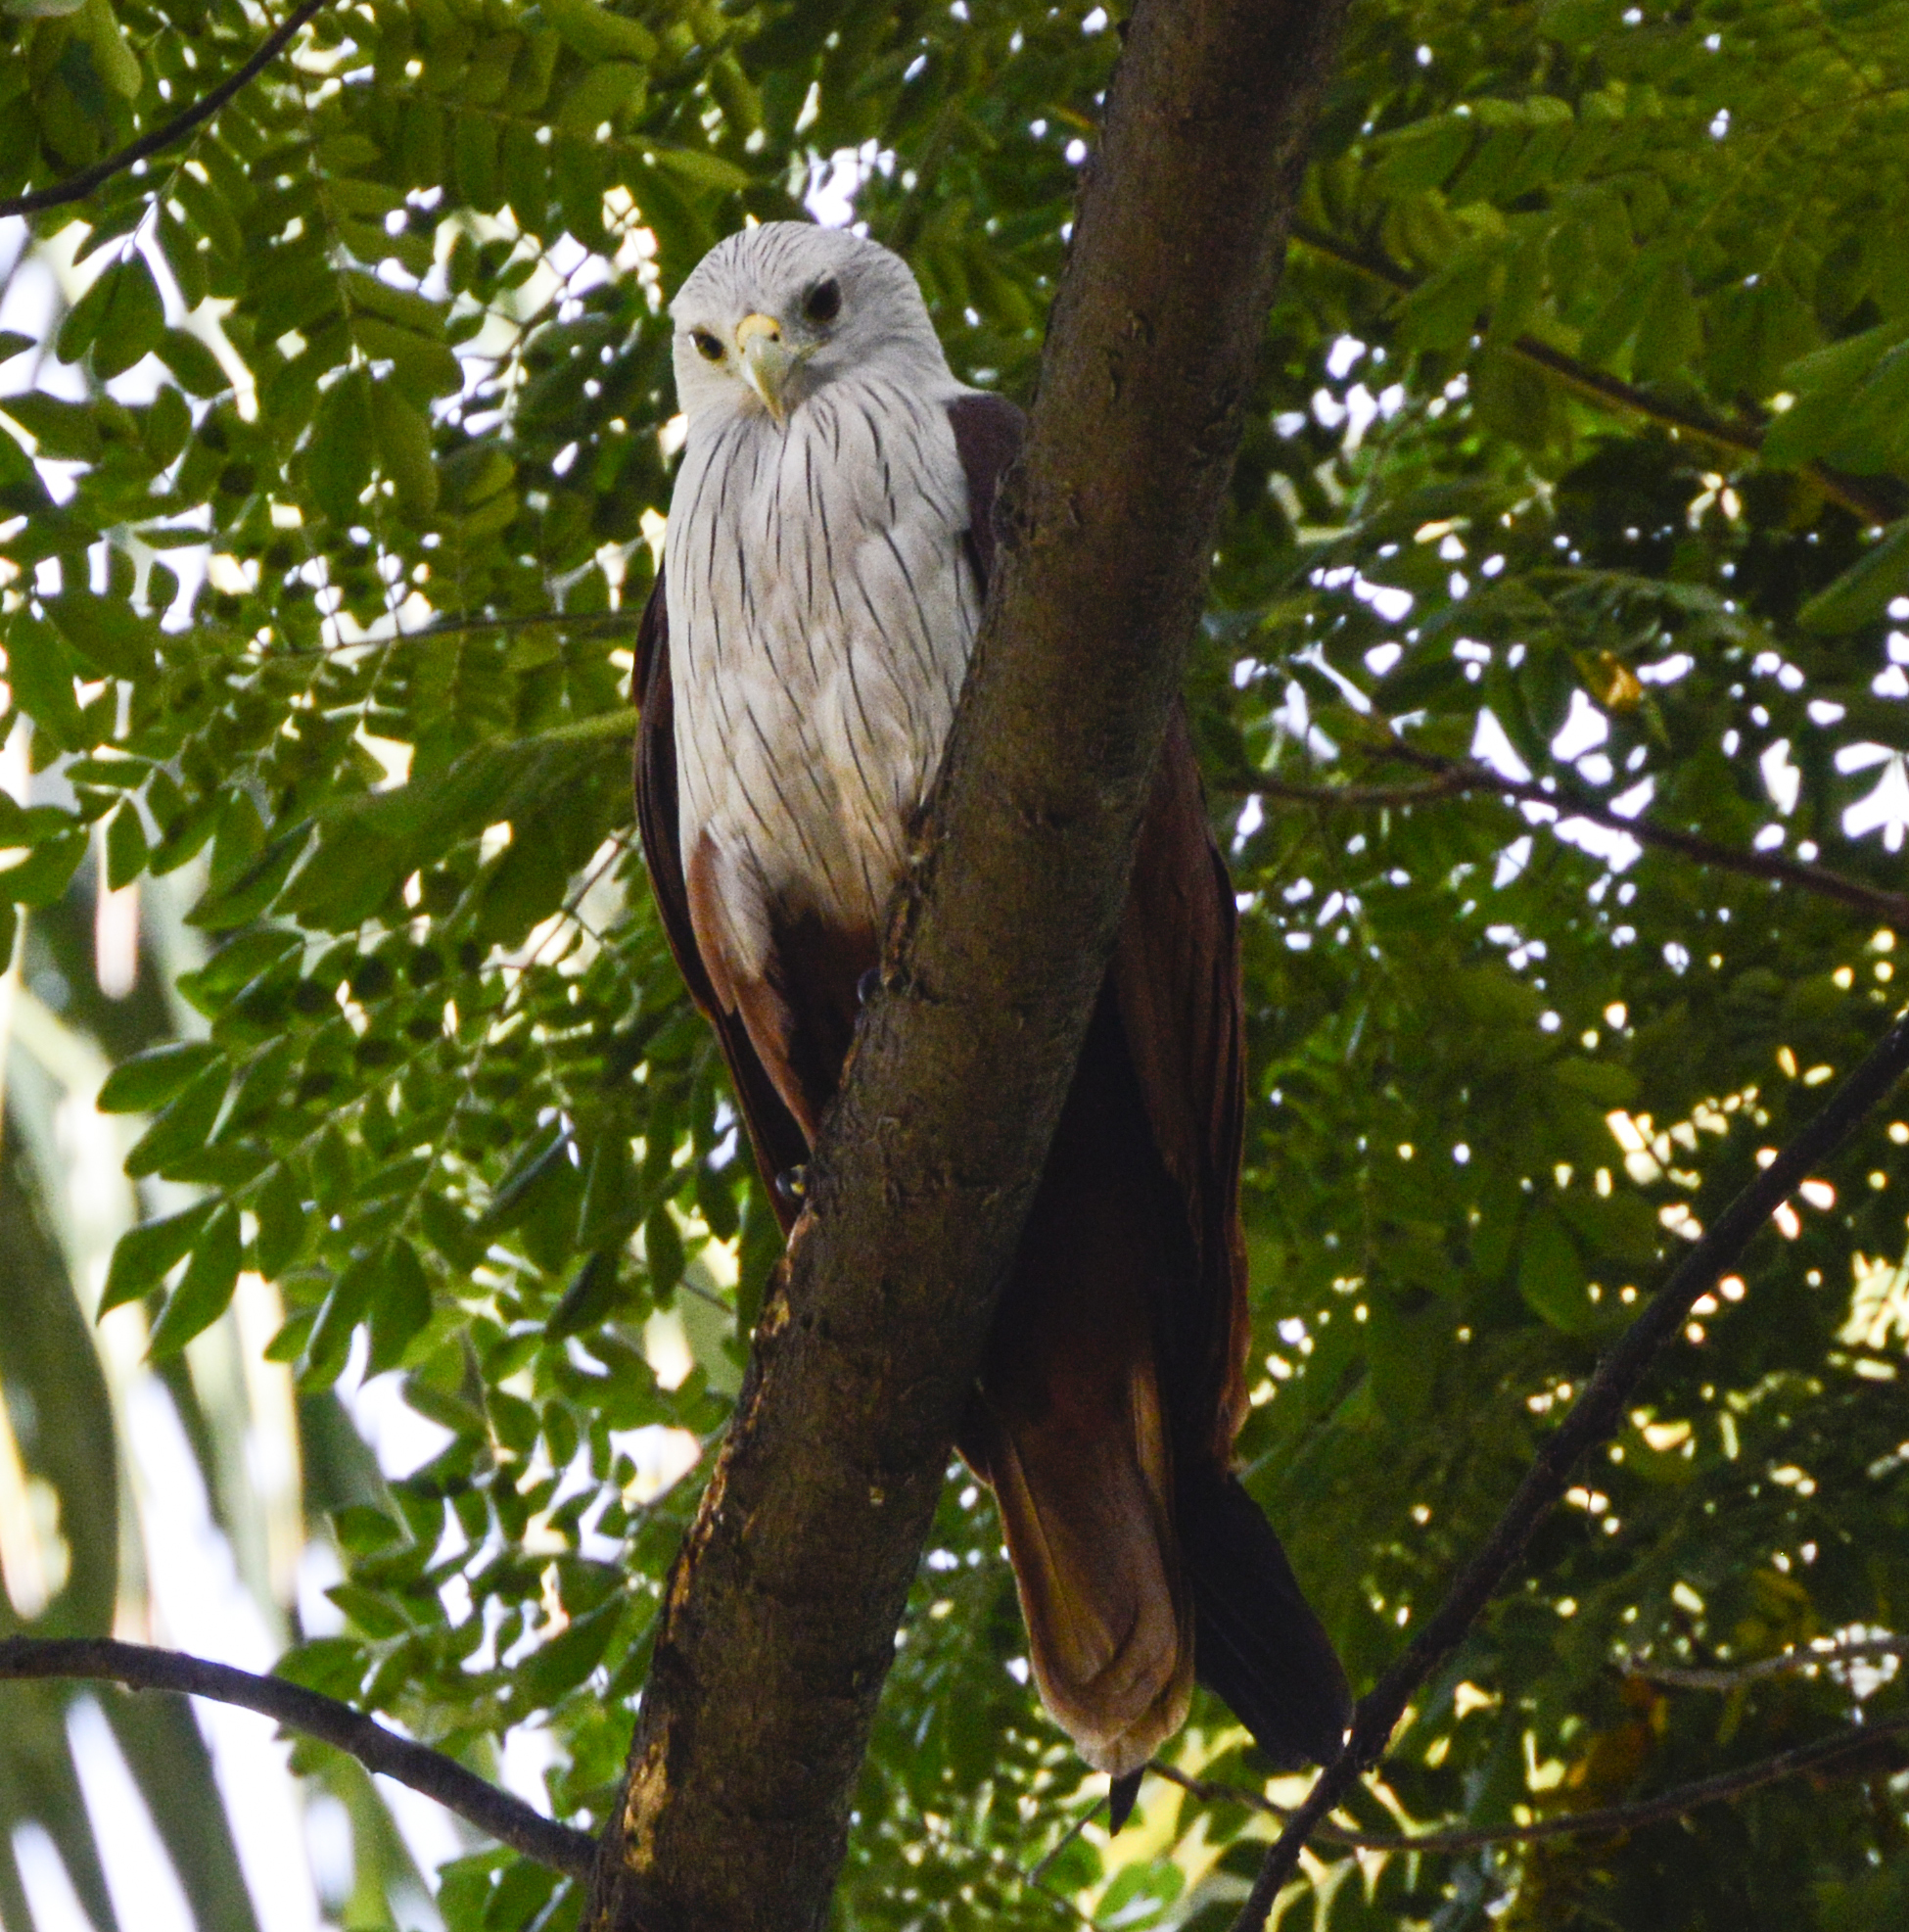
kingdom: Animalia
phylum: Chordata
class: Aves
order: Accipitriformes
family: Accipitridae
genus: Haliastur
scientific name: Haliastur indus
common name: Brahminy kite
